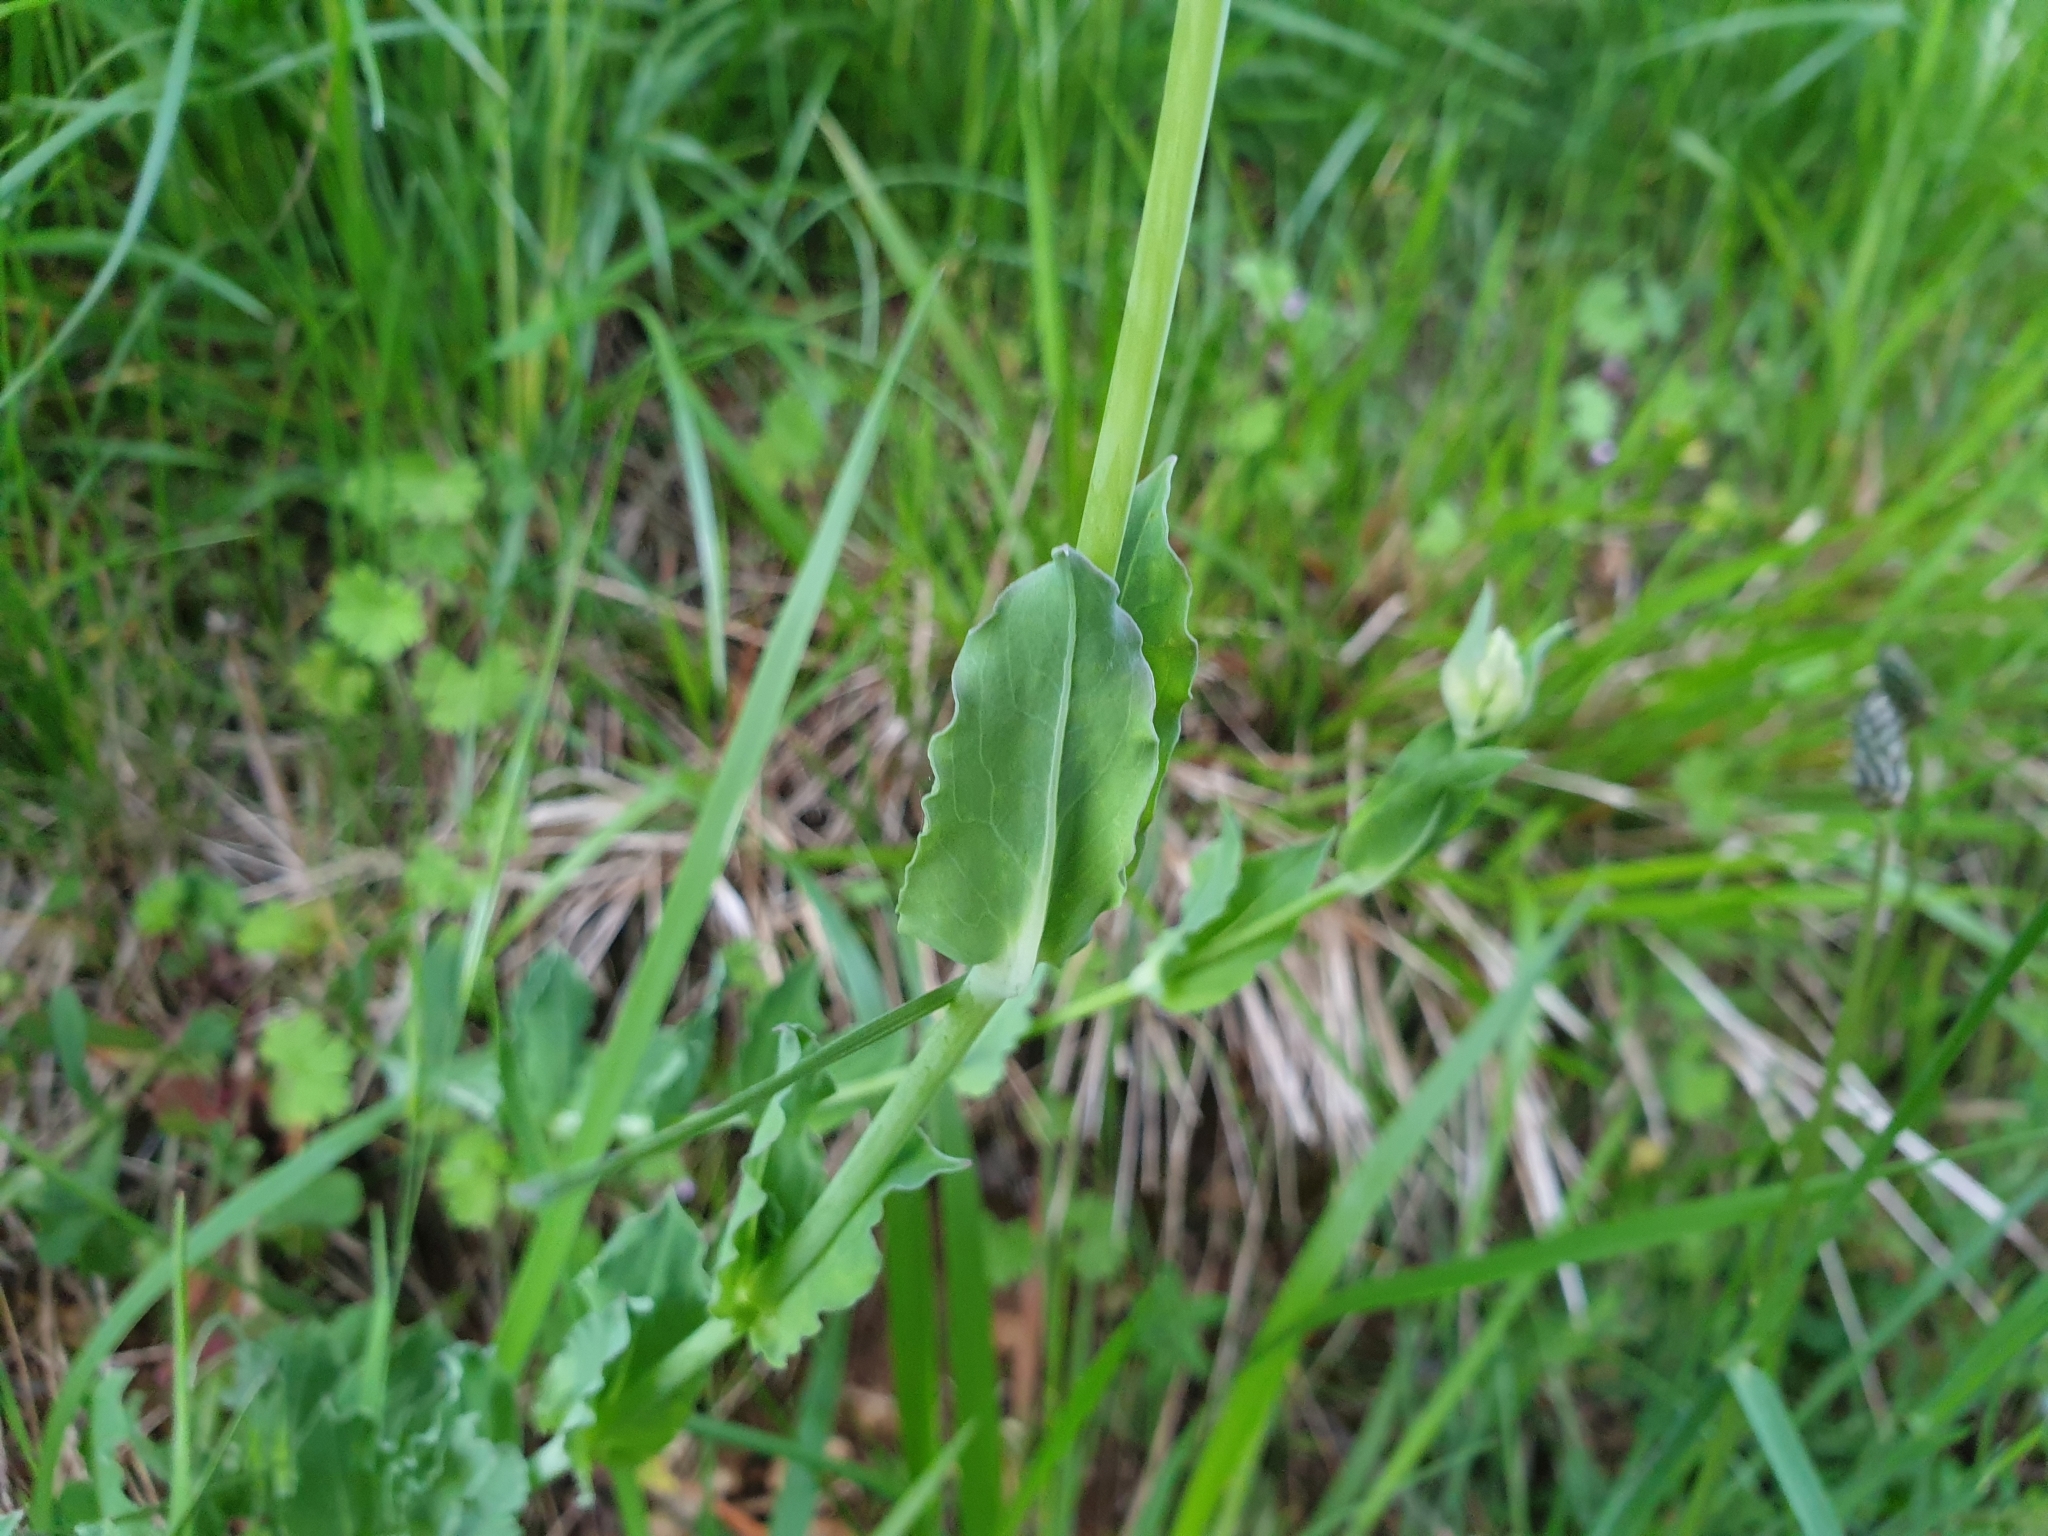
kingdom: Plantae
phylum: Tracheophyta
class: Magnoliopsida
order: Caryophyllales
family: Caryophyllaceae
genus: Silene
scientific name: Silene vulgaris
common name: Bladder campion
